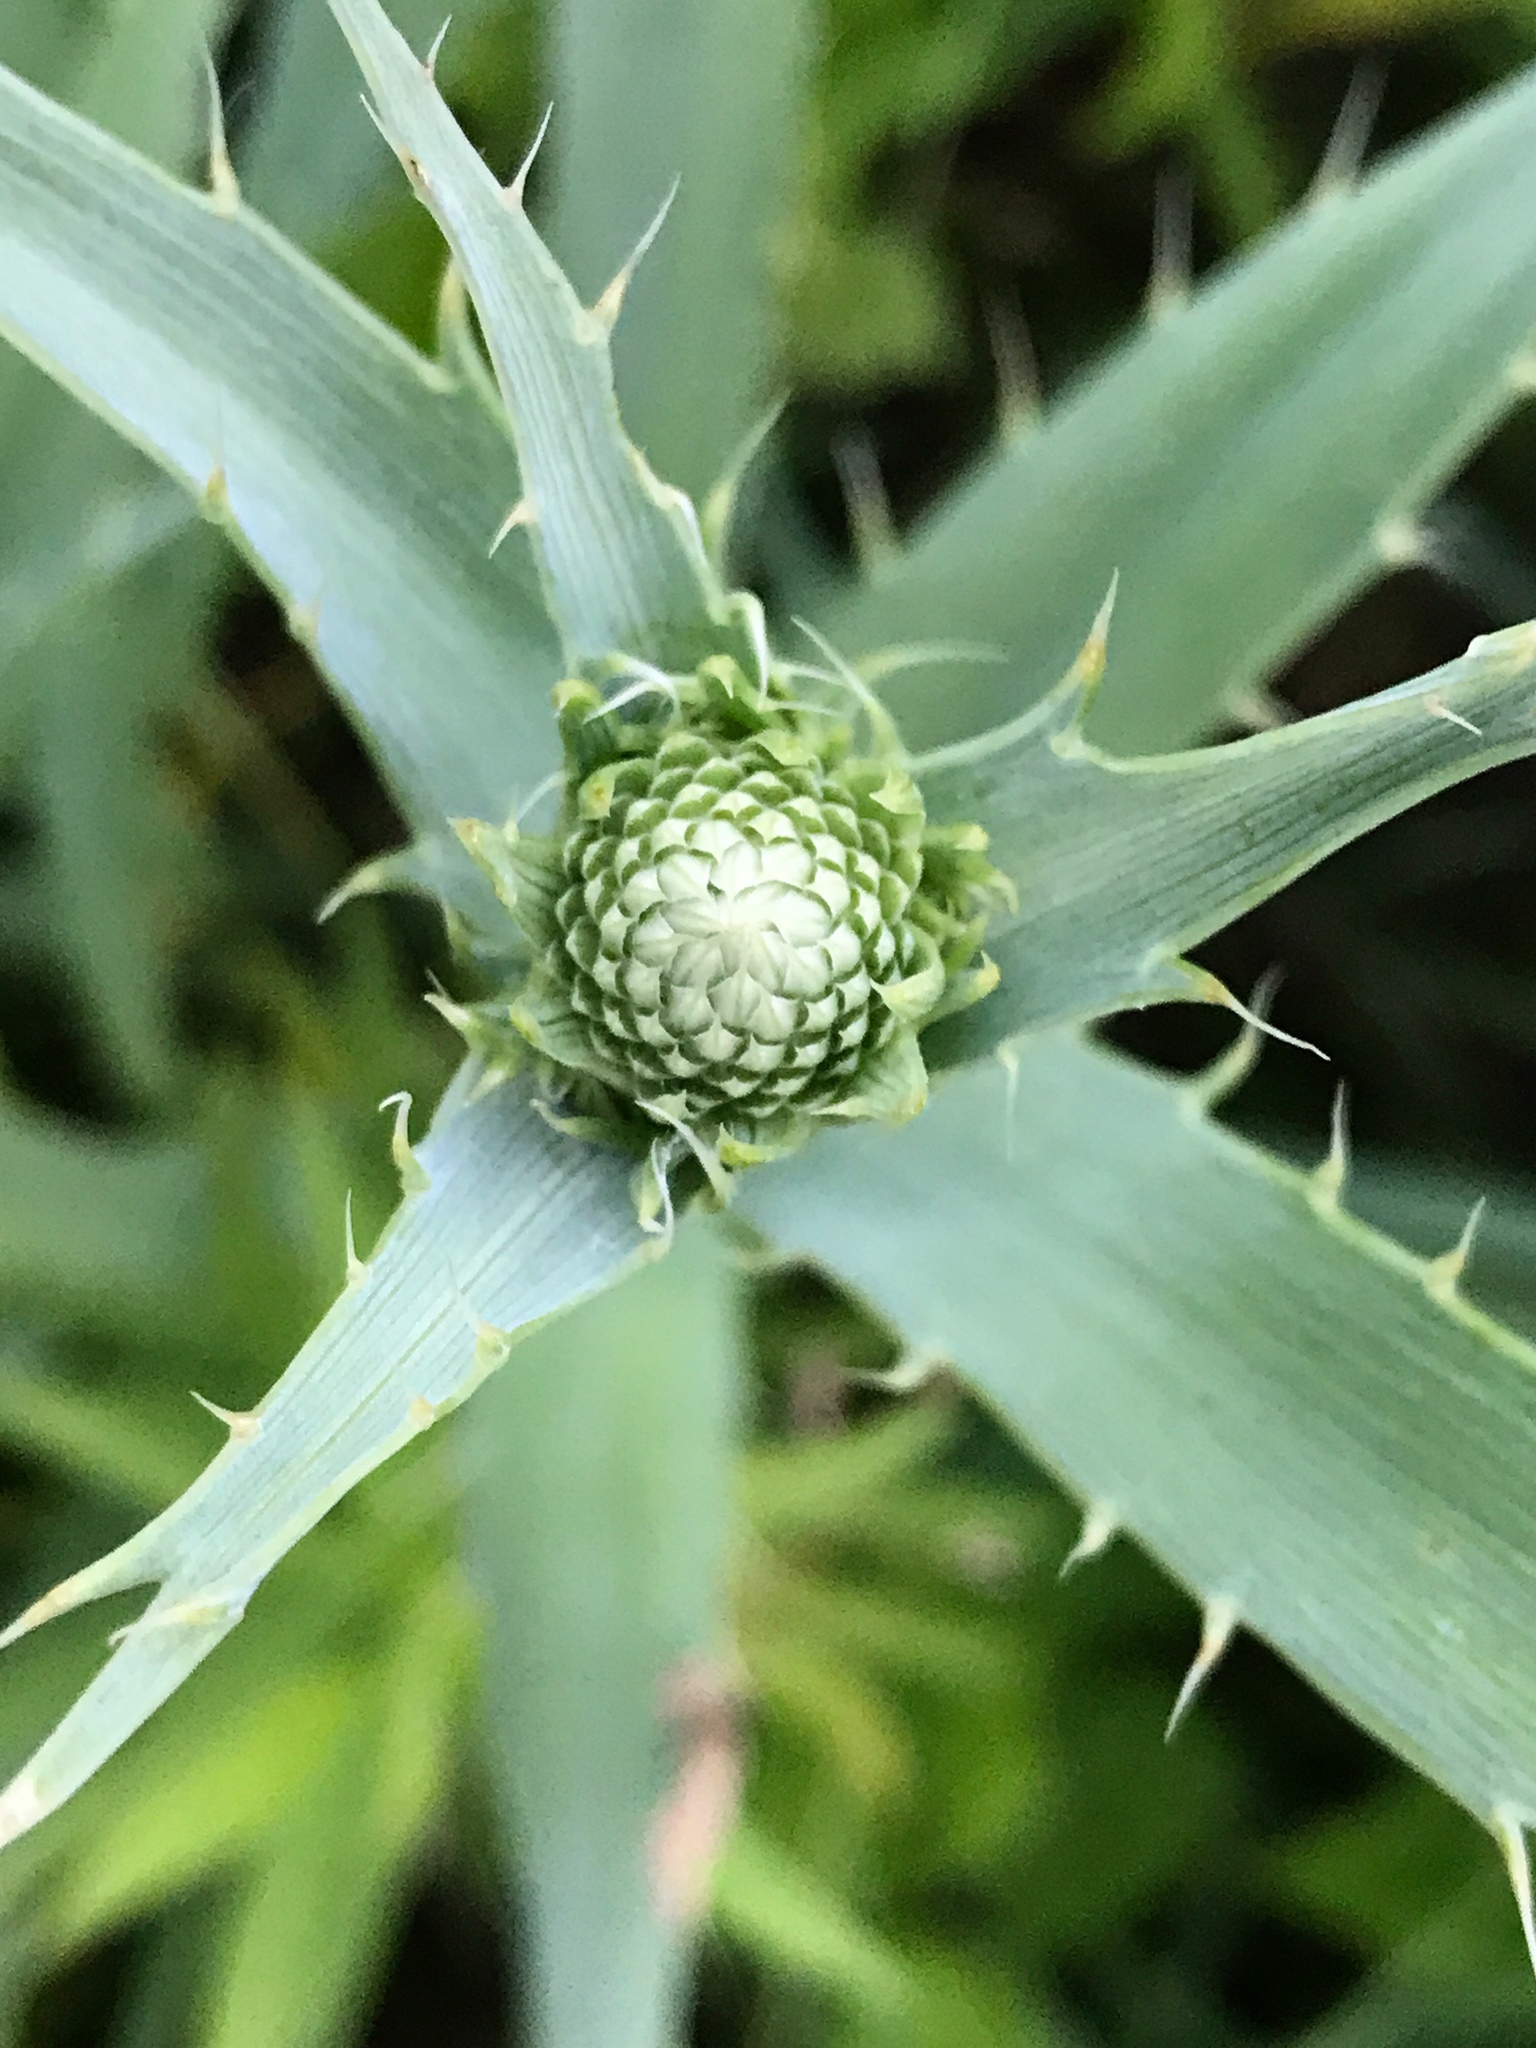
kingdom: Plantae
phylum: Tracheophyta
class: Magnoliopsida
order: Apiales
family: Apiaceae
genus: Eryngium
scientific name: Eryngium yuccifolium
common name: Button eryngo
